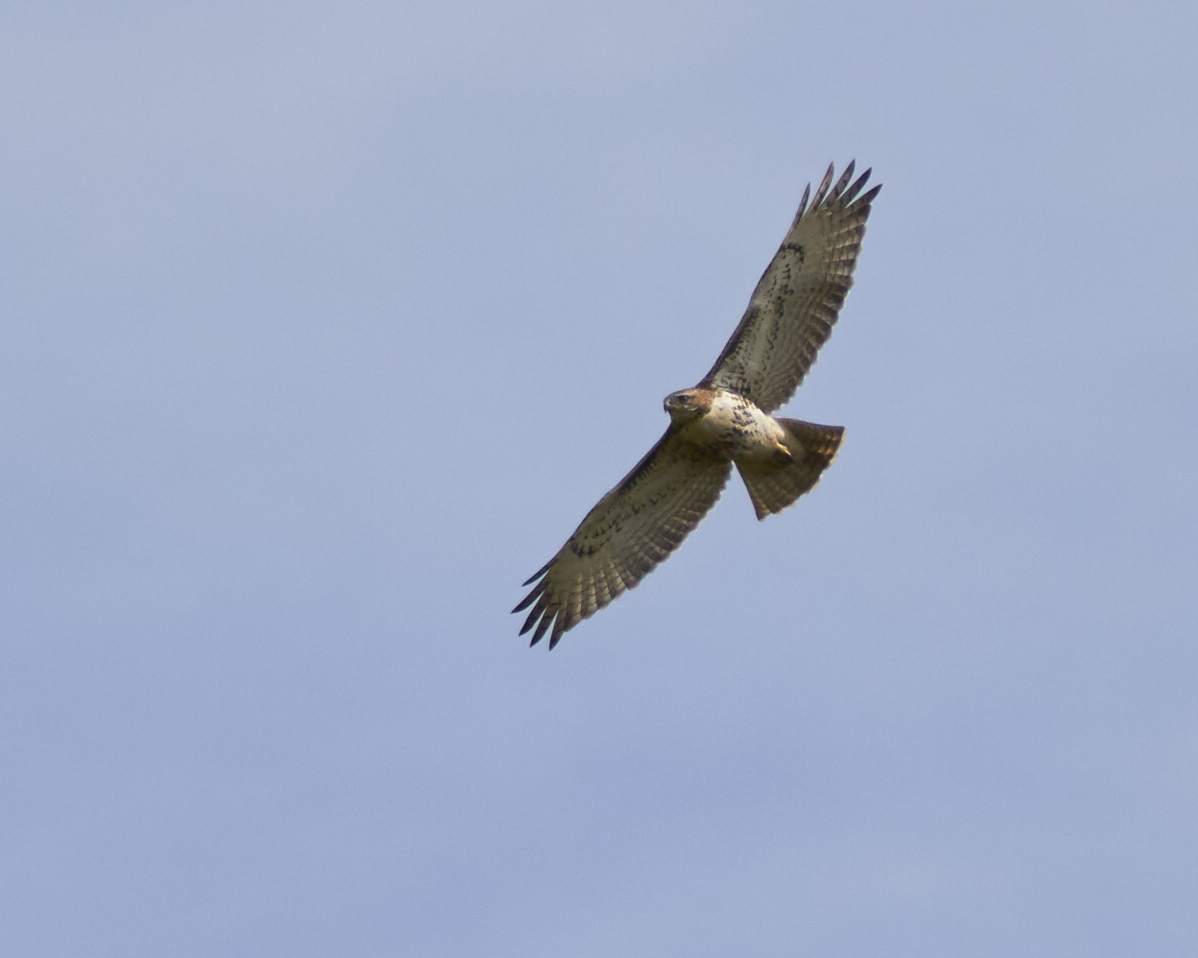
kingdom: Animalia
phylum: Chordata
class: Aves
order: Accipitriformes
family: Accipitridae
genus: Buteo
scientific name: Buteo jamaicensis
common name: Red-tailed hawk
